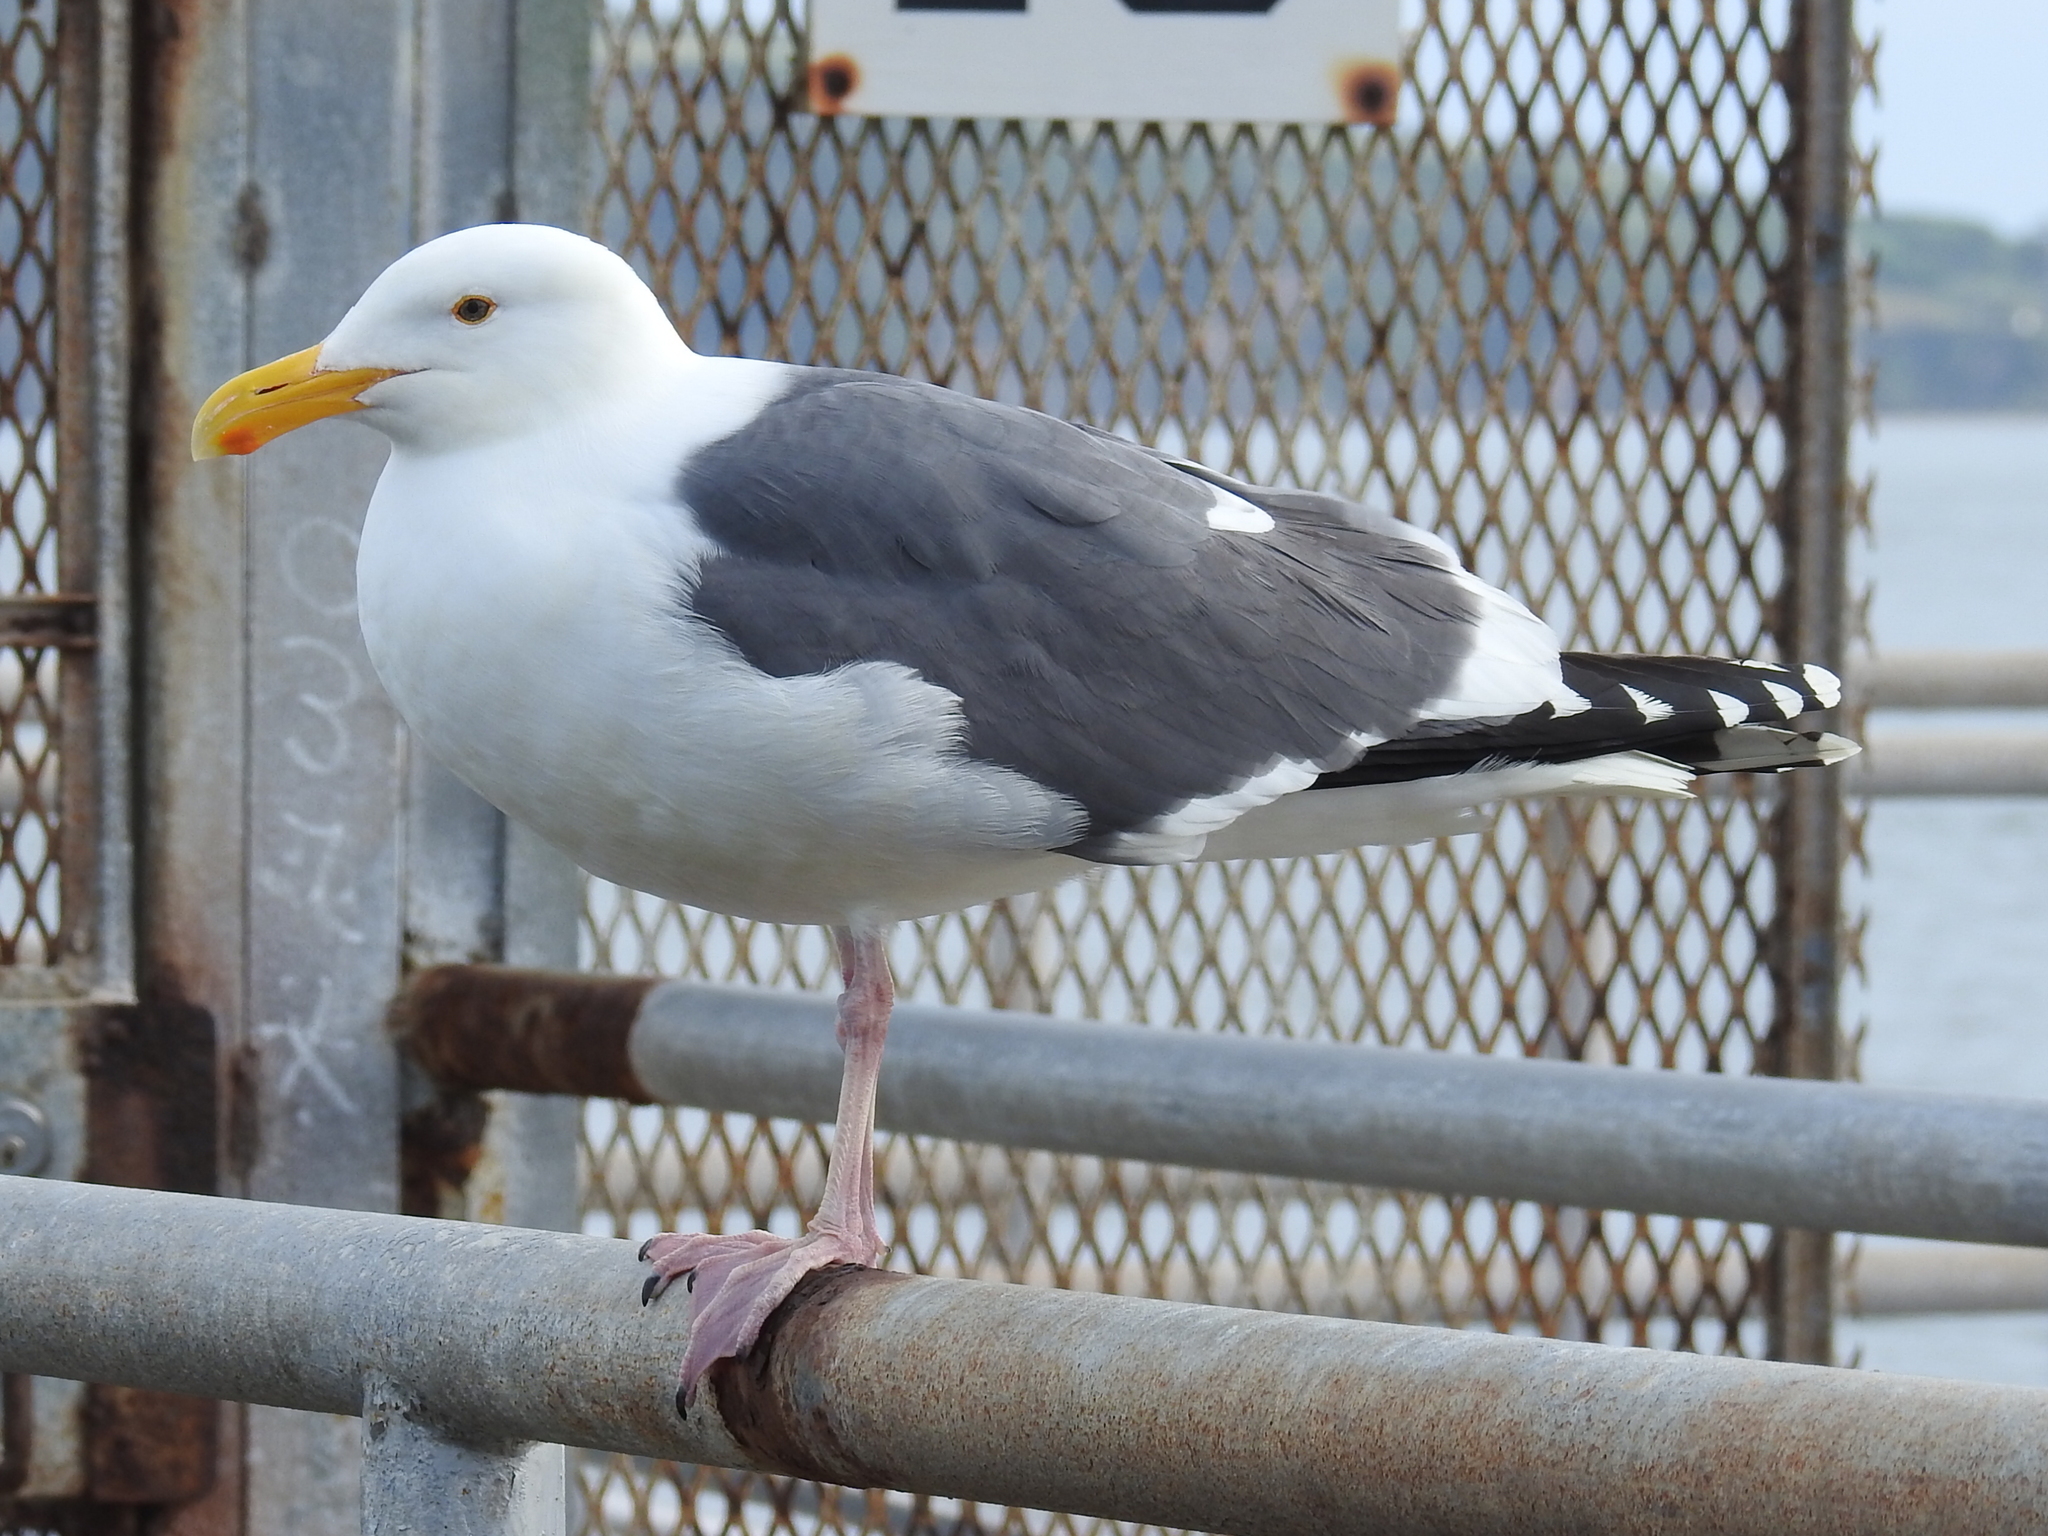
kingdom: Animalia
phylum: Chordata
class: Aves
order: Charadriiformes
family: Laridae
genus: Larus
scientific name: Larus occidentalis
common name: Western gull
